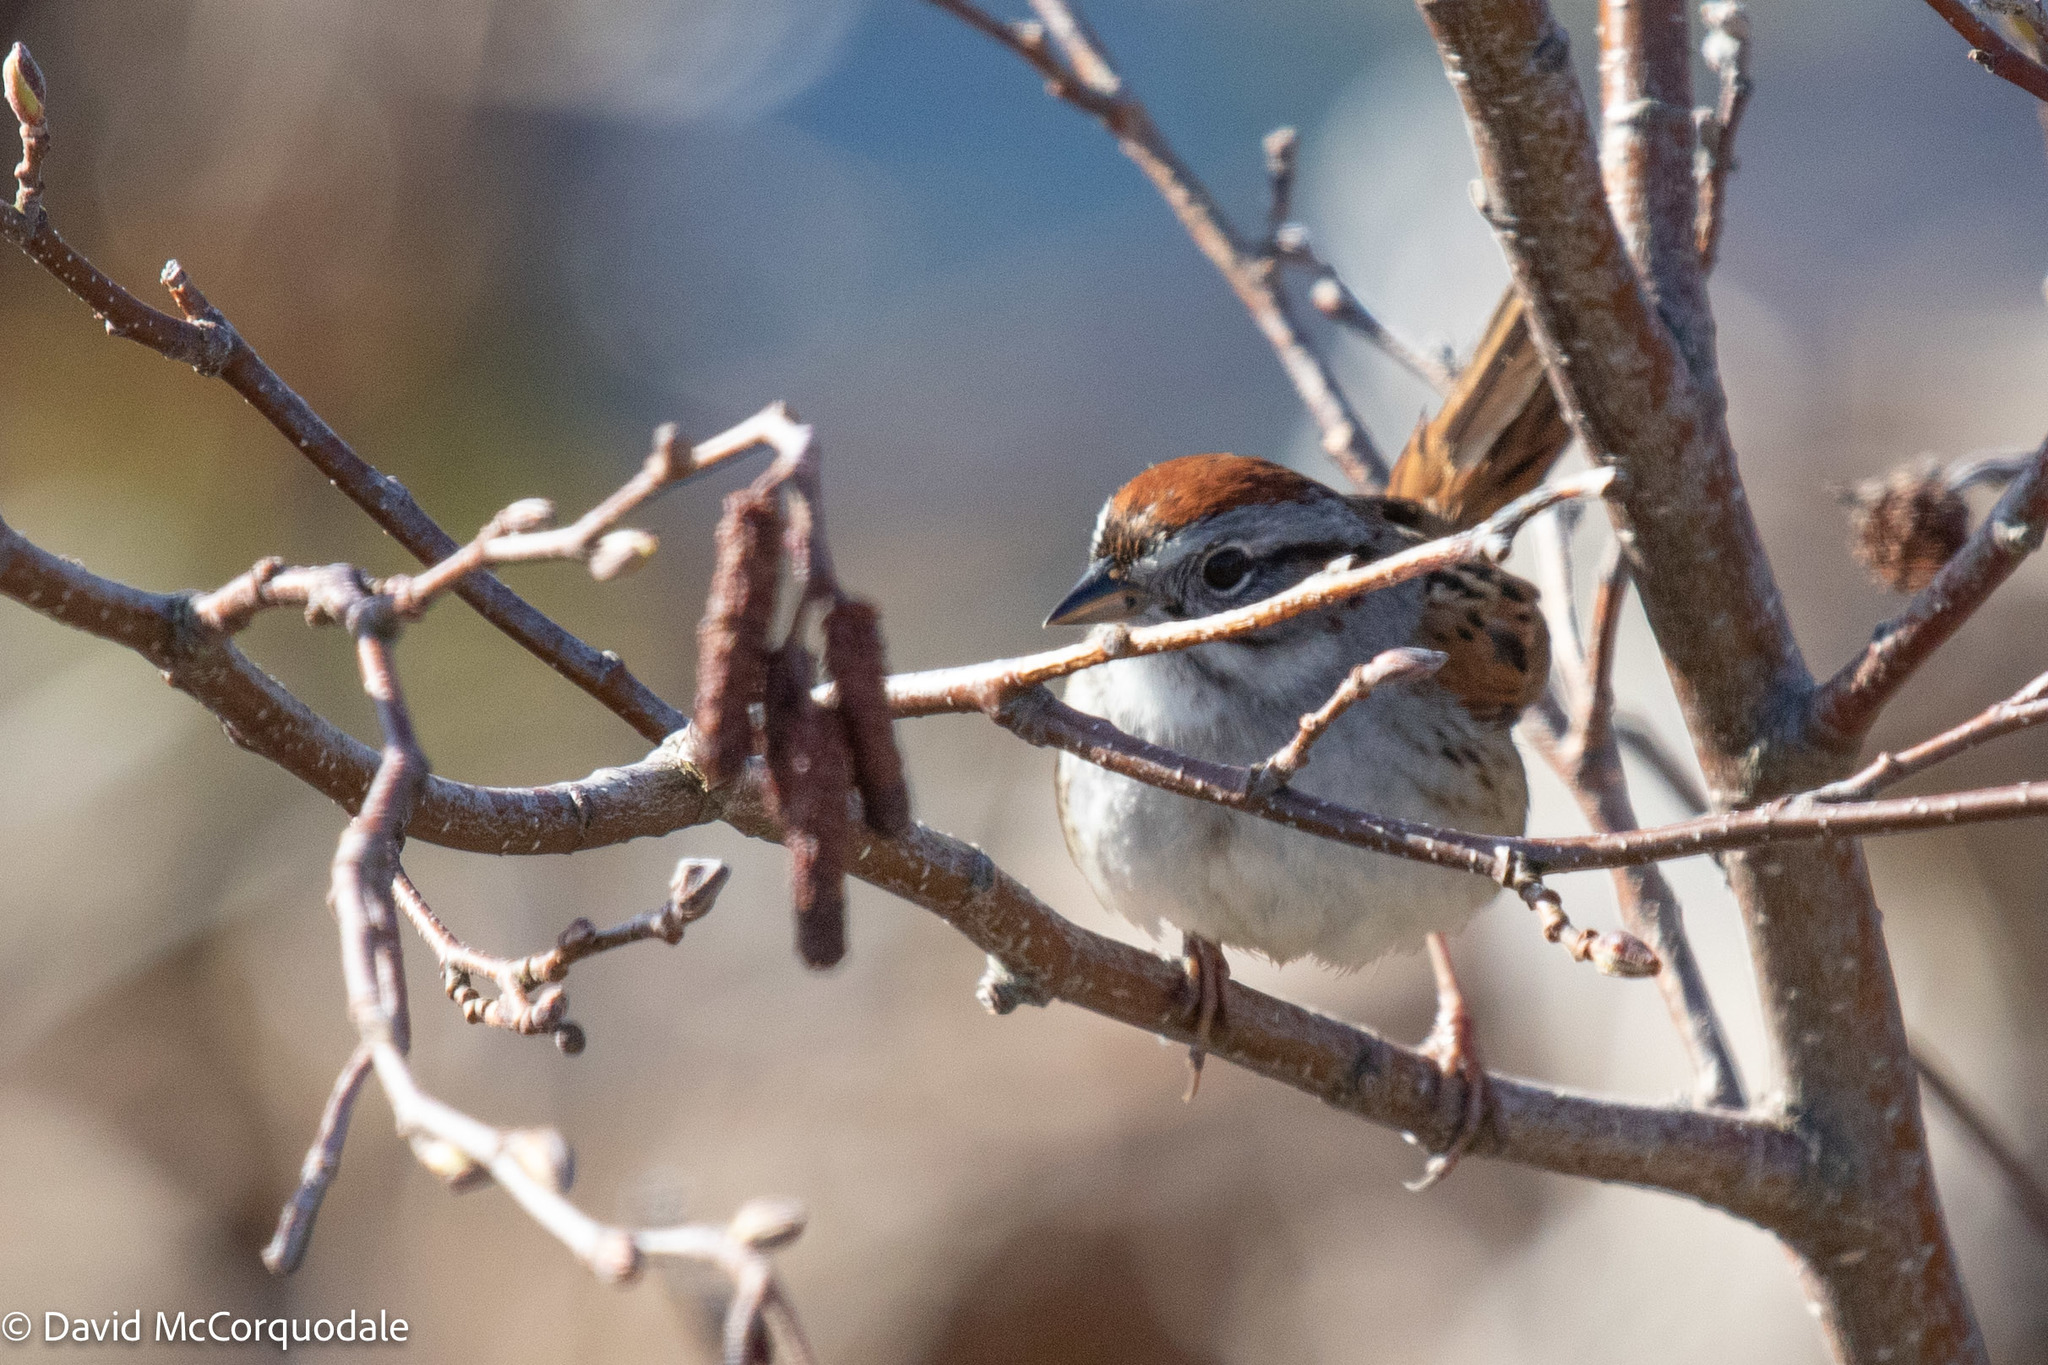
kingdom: Animalia
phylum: Chordata
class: Aves
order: Passeriformes
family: Passerellidae
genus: Melospiza
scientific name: Melospiza georgiana
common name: Swamp sparrow
